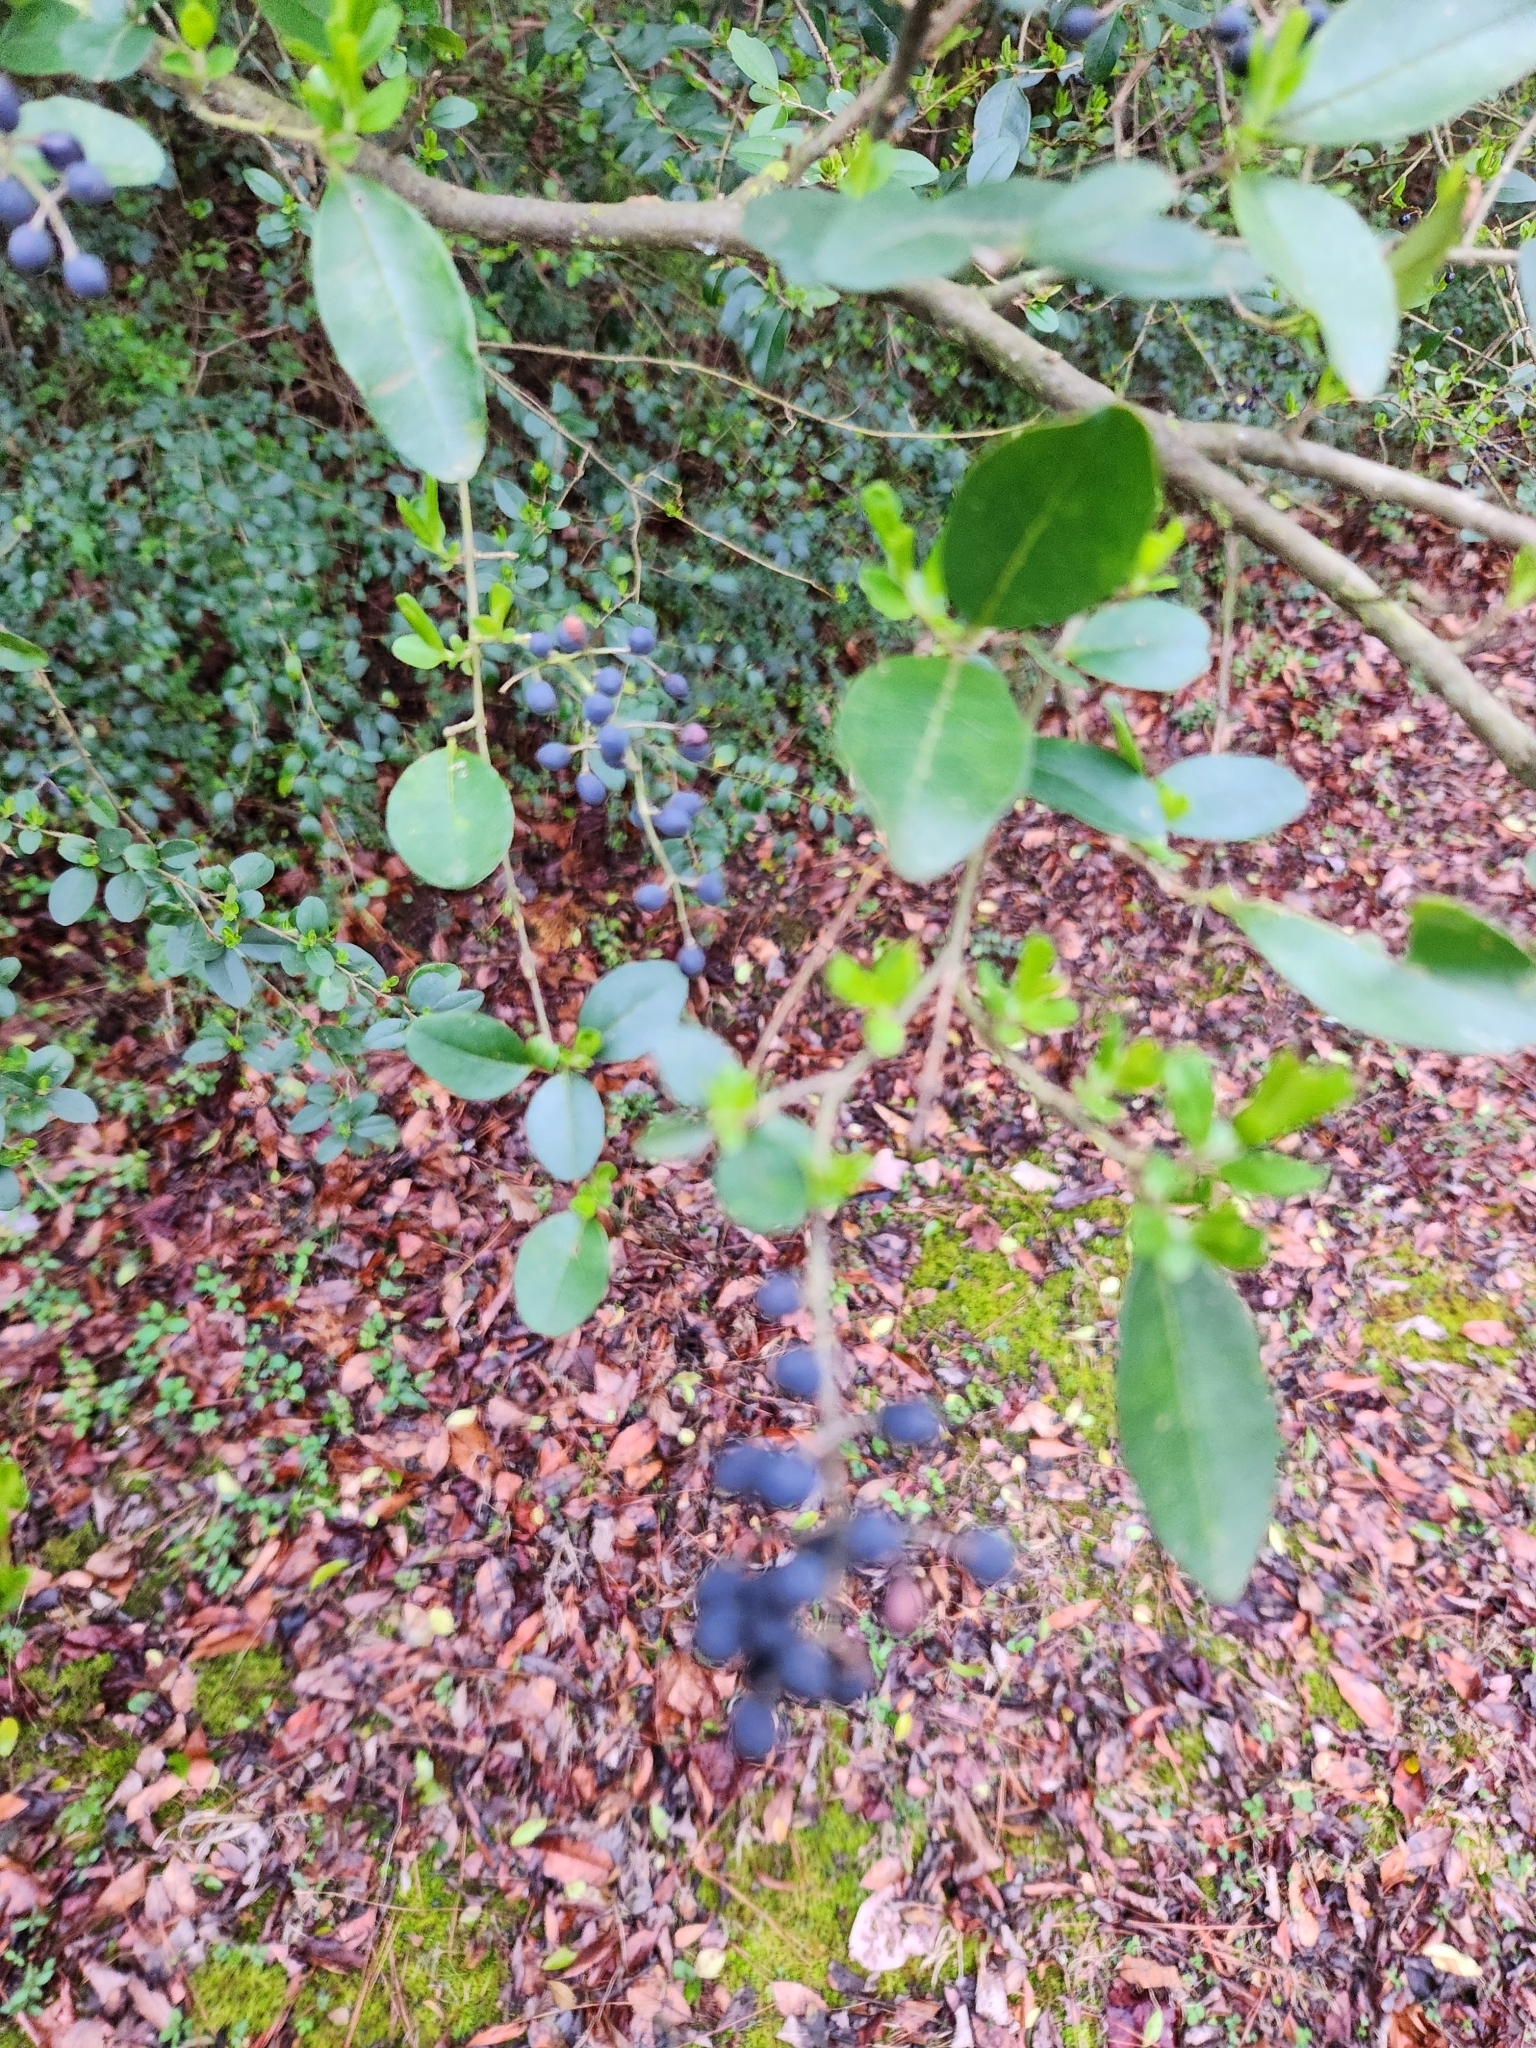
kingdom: Plantae
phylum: Tracheophyta
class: Magnoliopsida
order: Lamiales
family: Oleaceae
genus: Ligustrum
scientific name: Ligustrum sinense
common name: Chinese privet
